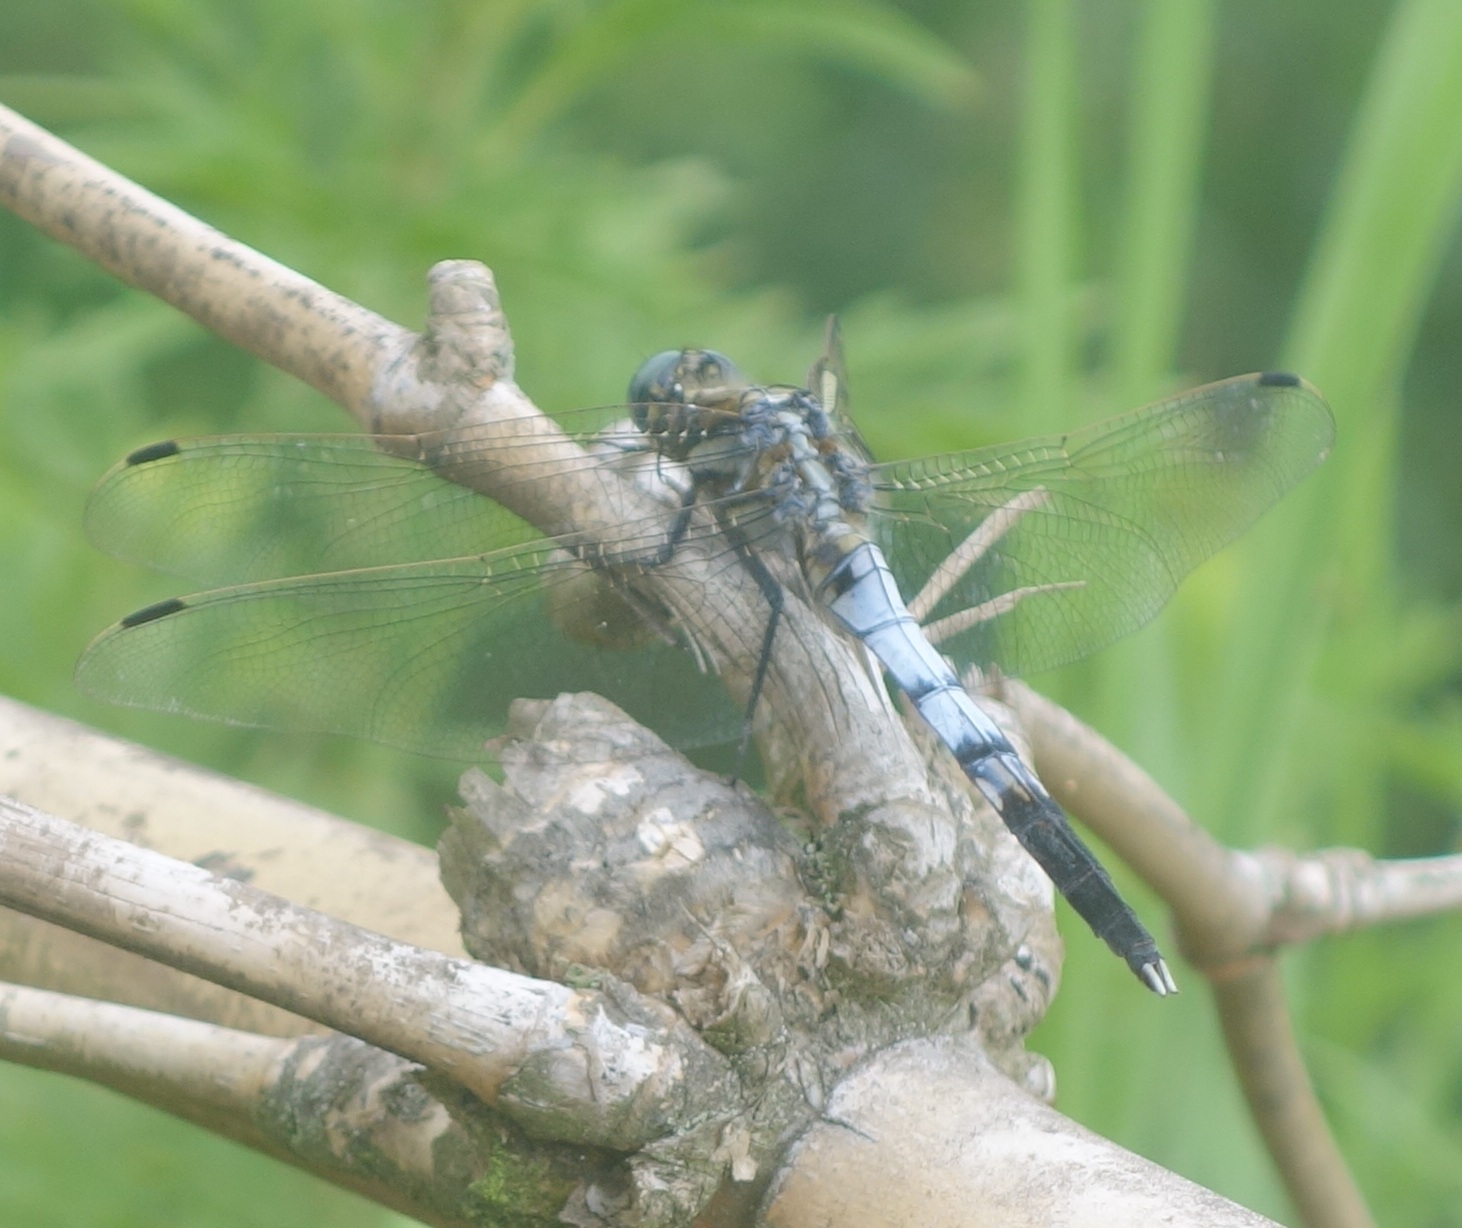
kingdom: Animalia
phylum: Arthropoda
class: Insecta
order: Odonata
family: Libellulidae
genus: Orthetrum
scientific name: Orthetrum albistylum
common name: White-tailed skimmer
